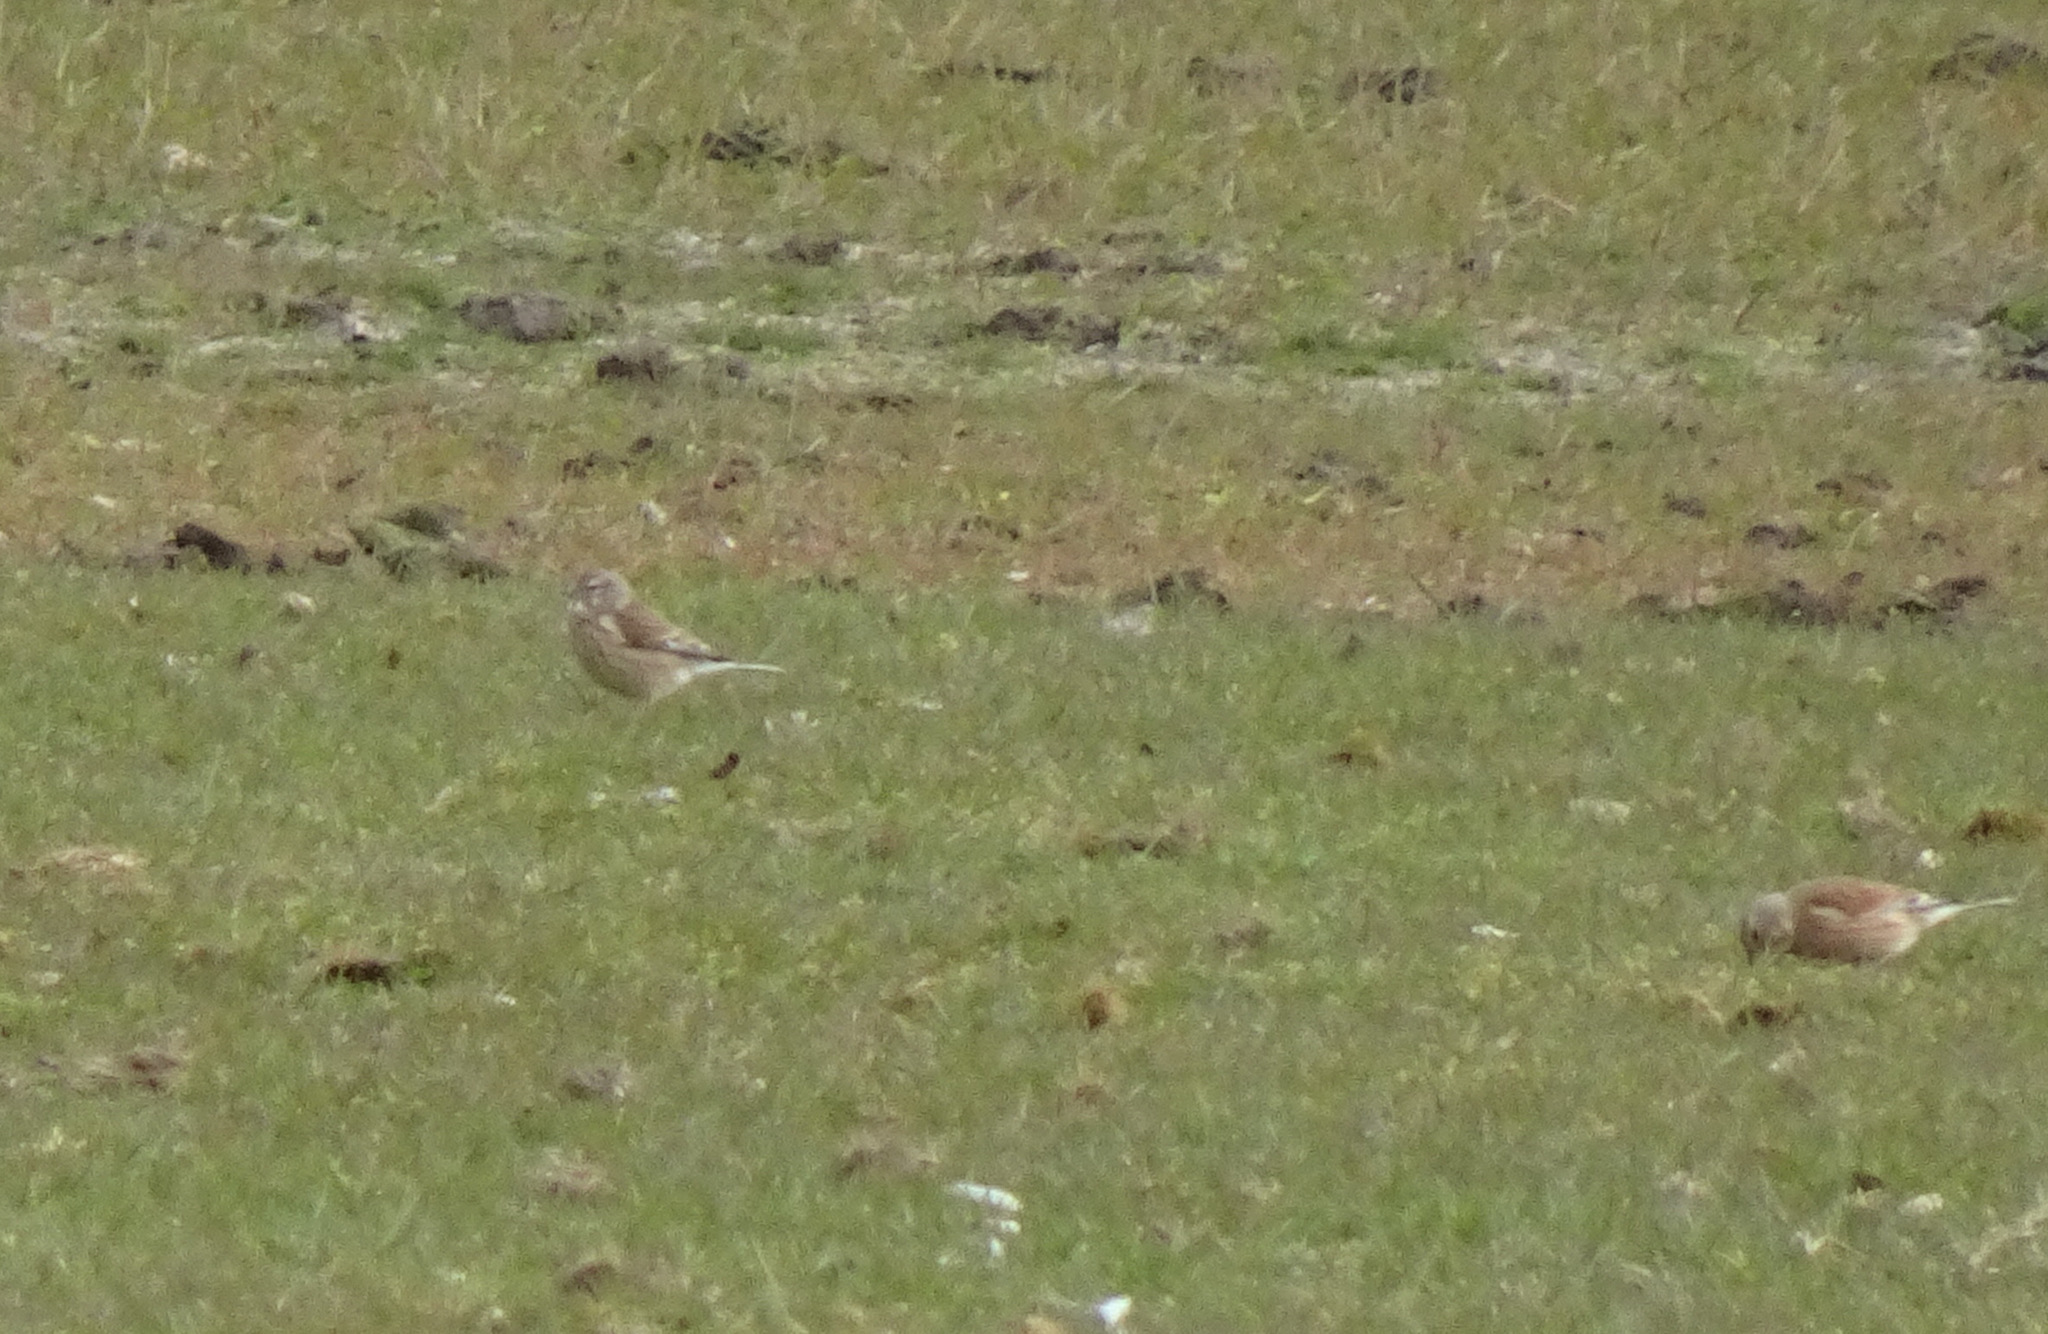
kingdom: Animalia
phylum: Chordata
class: Aves
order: Passeriformes
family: Fringillidae
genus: Linaria
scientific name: Linaria cannabina
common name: Common linnet
